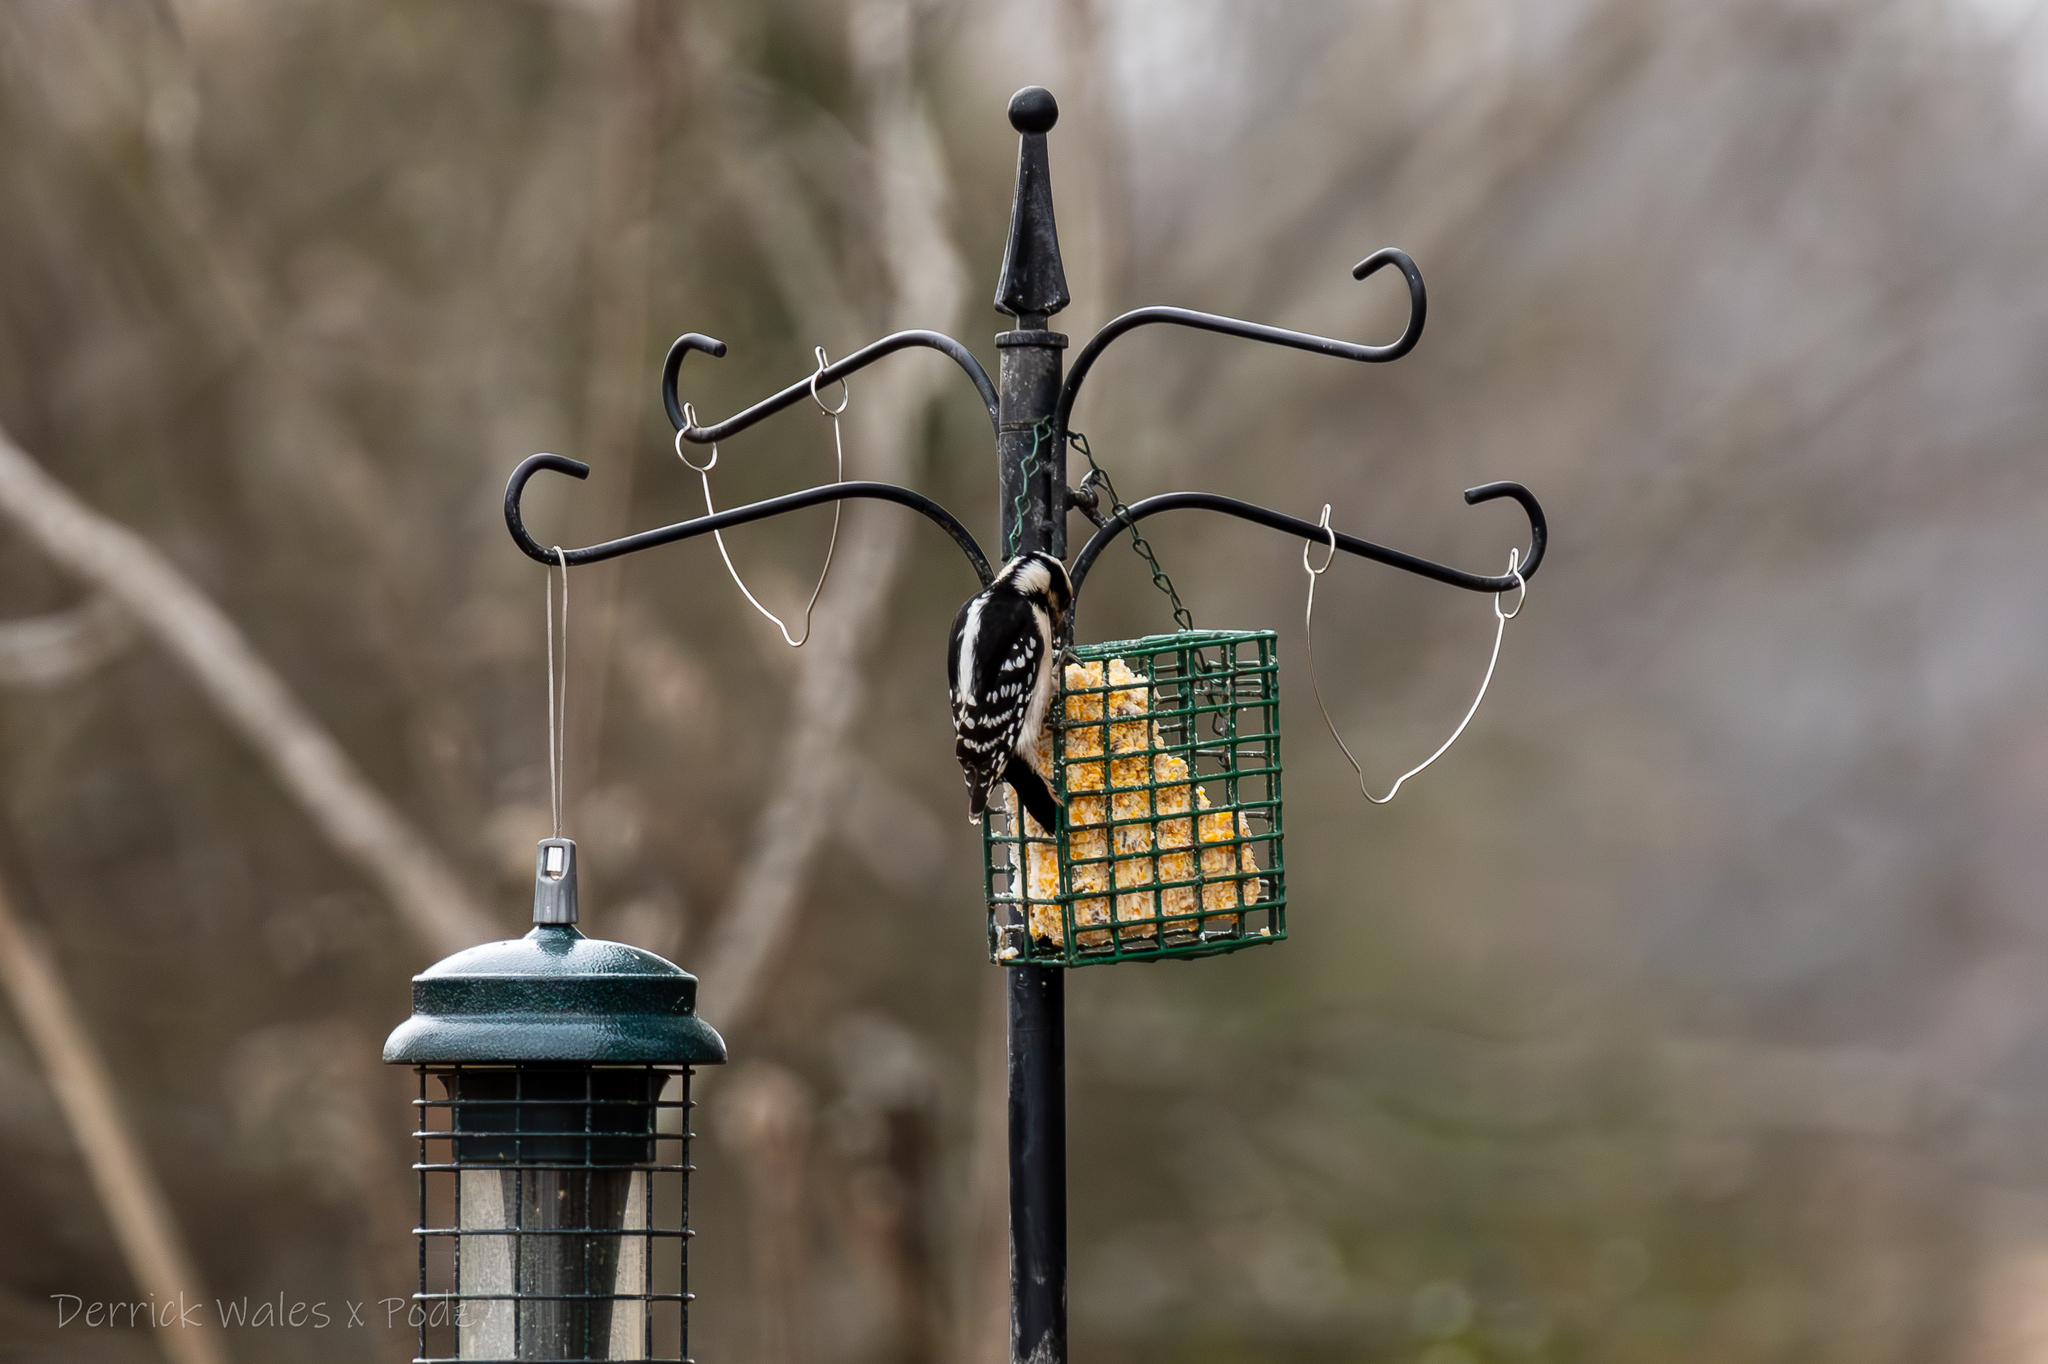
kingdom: Animalia
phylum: Chordata
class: Aves
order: Piciformes
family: Picidae
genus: Dryobates
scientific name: Dryobates pubescens
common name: Downy woodpecker
